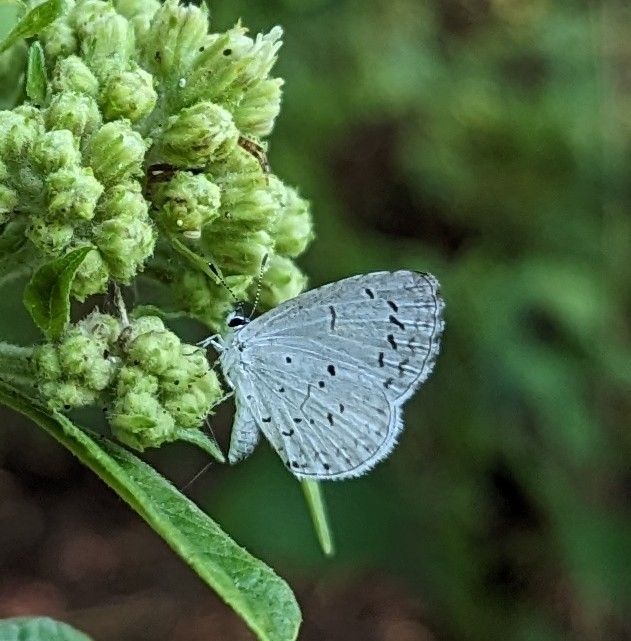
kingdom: Animalia
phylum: Arthropoda
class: Insecta
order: Lepidoptera
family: Lycaenidae
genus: Cyaniris
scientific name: Cyaniris neglecta
